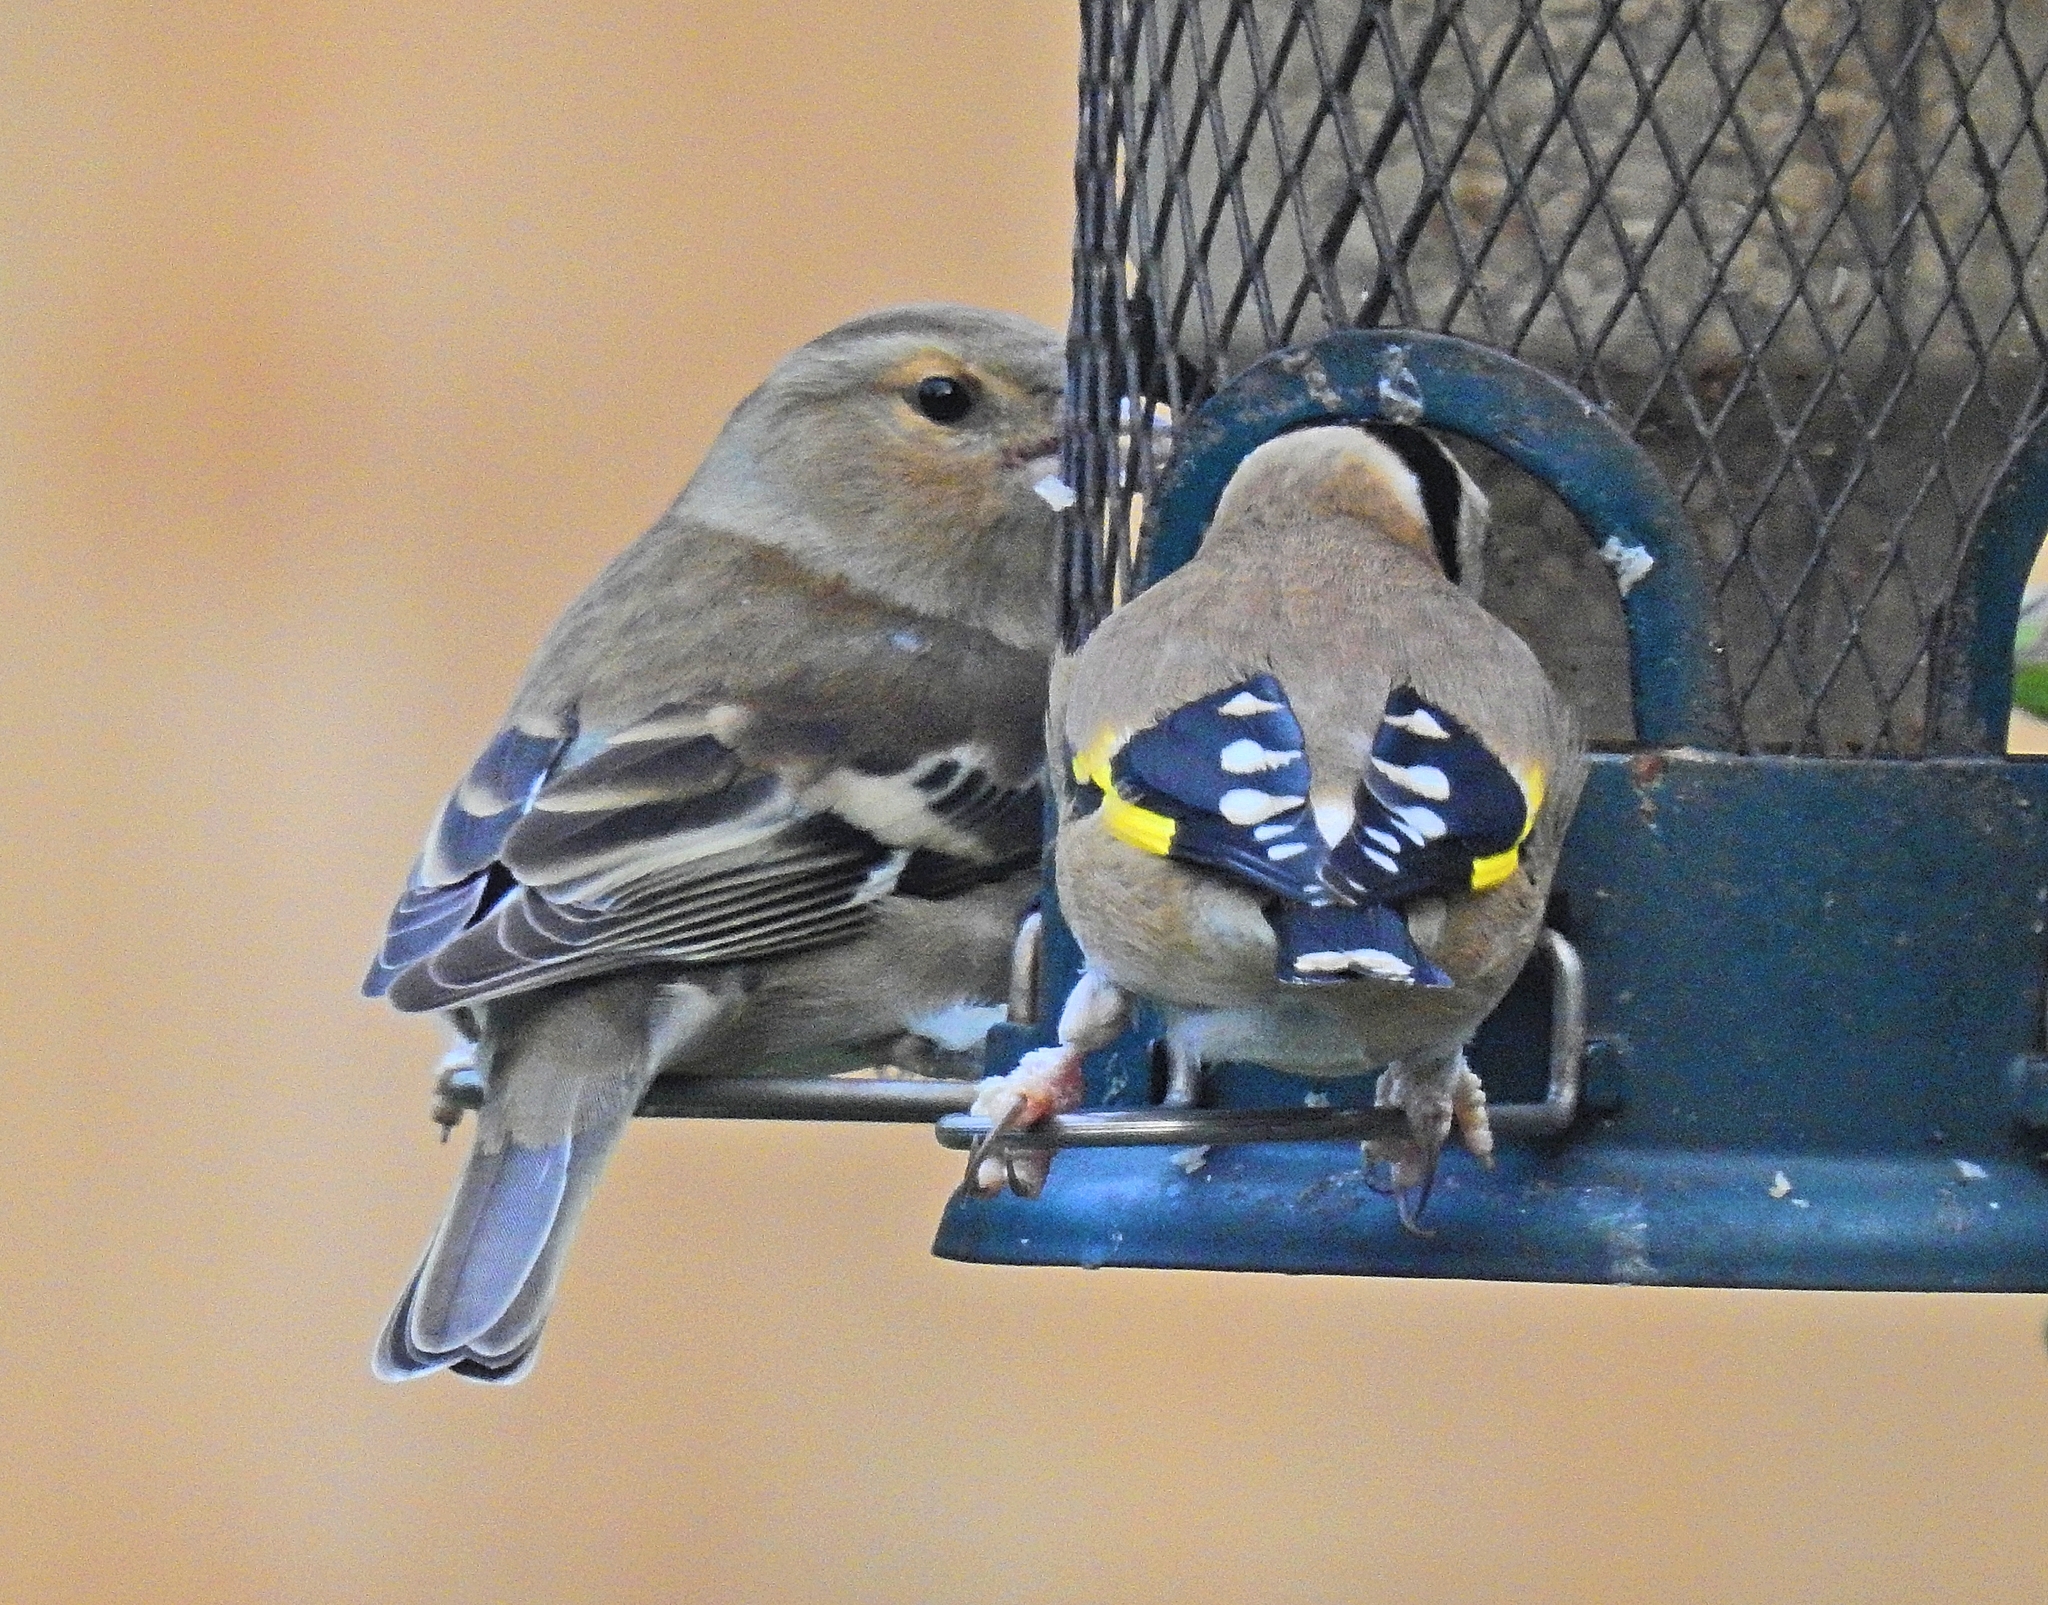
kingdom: Animalia
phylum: Chordata
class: Aves
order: Passeriformes
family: Fringillidae
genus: Fringilla
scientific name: Fringilla coelebs
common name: Common chaffinch
